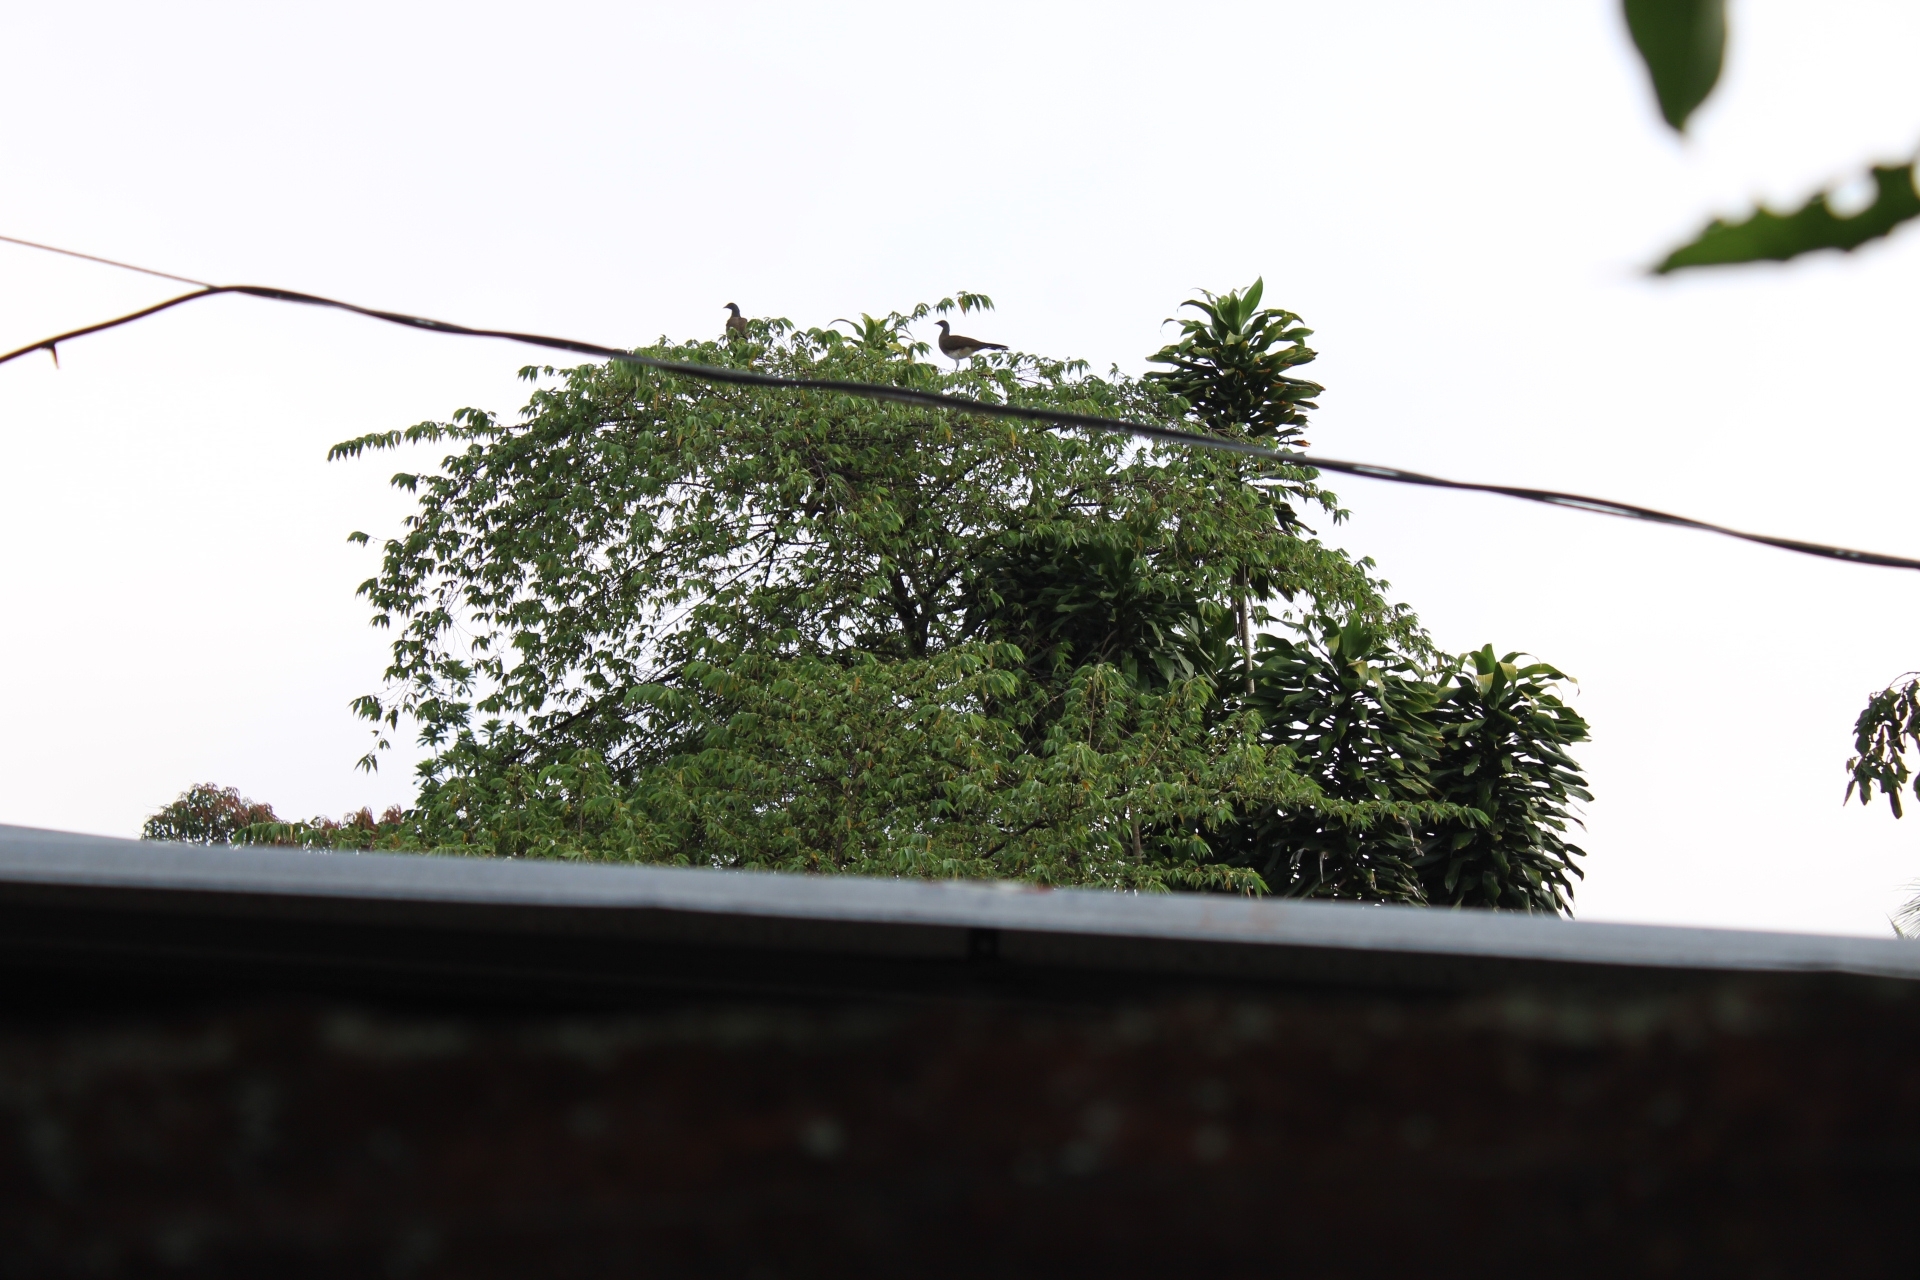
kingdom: Animalia
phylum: Chordata
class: Aves
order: Galliformes
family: Cracidae
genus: Ortalis
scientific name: Ortalis leucogastra
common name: White-bellied chachalaca
